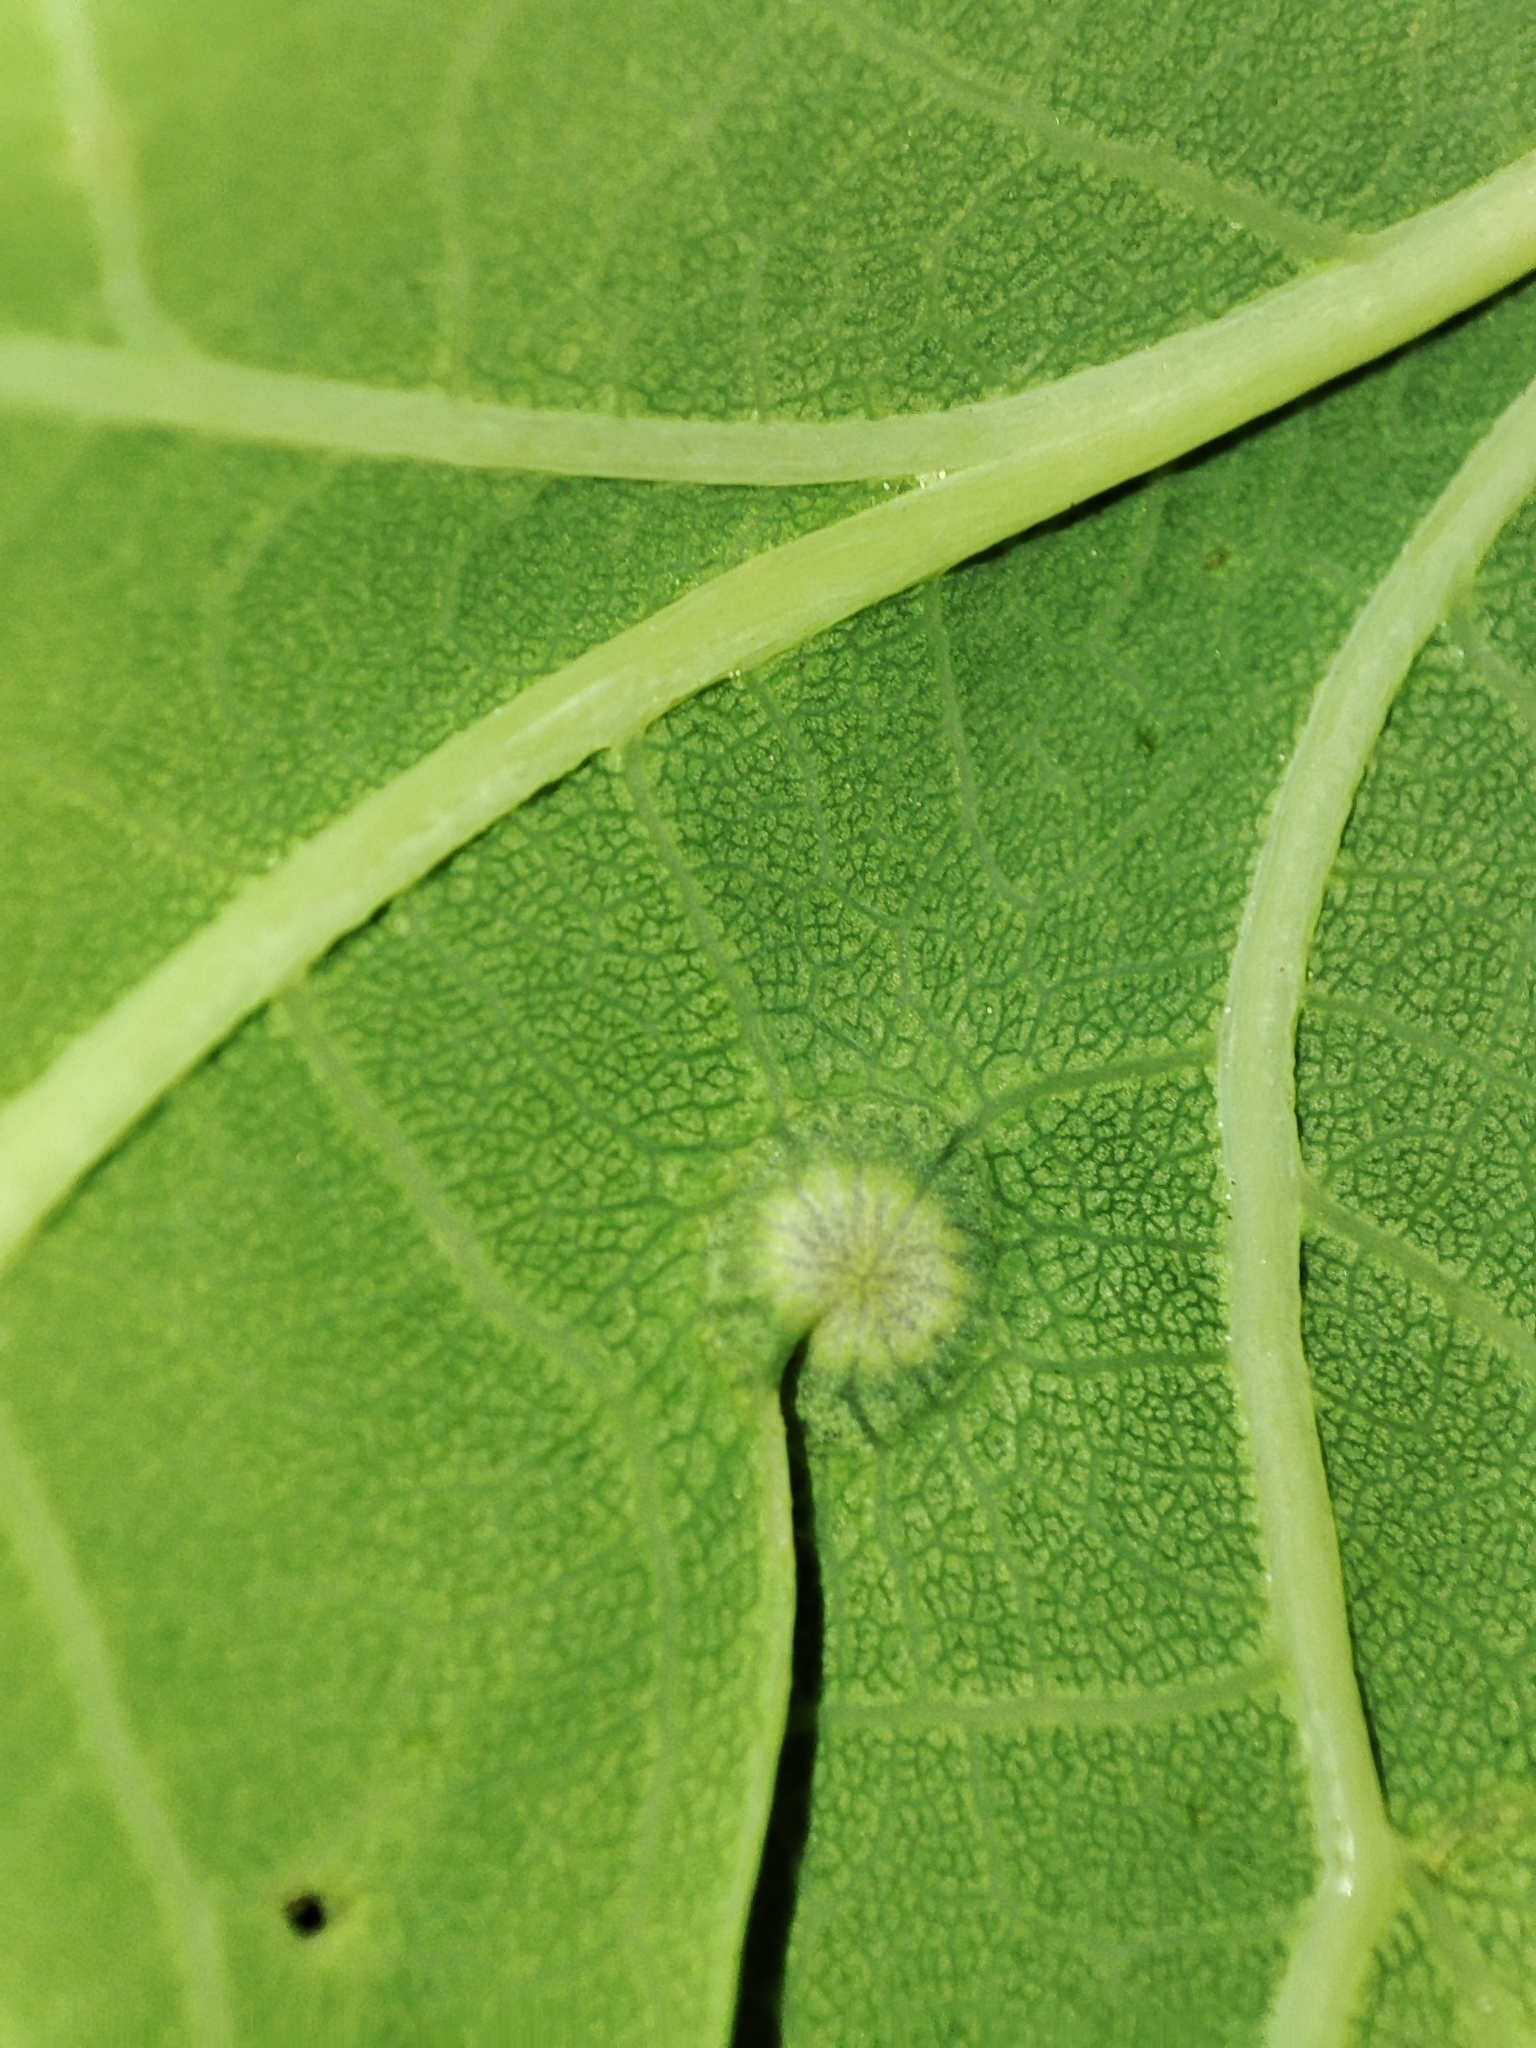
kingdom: Plantae
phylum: Tracheophyta
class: Magnoliopsida
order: Fagales
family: Fagaceae
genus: Quercus
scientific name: Quercus robur
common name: Pedunculate oak
